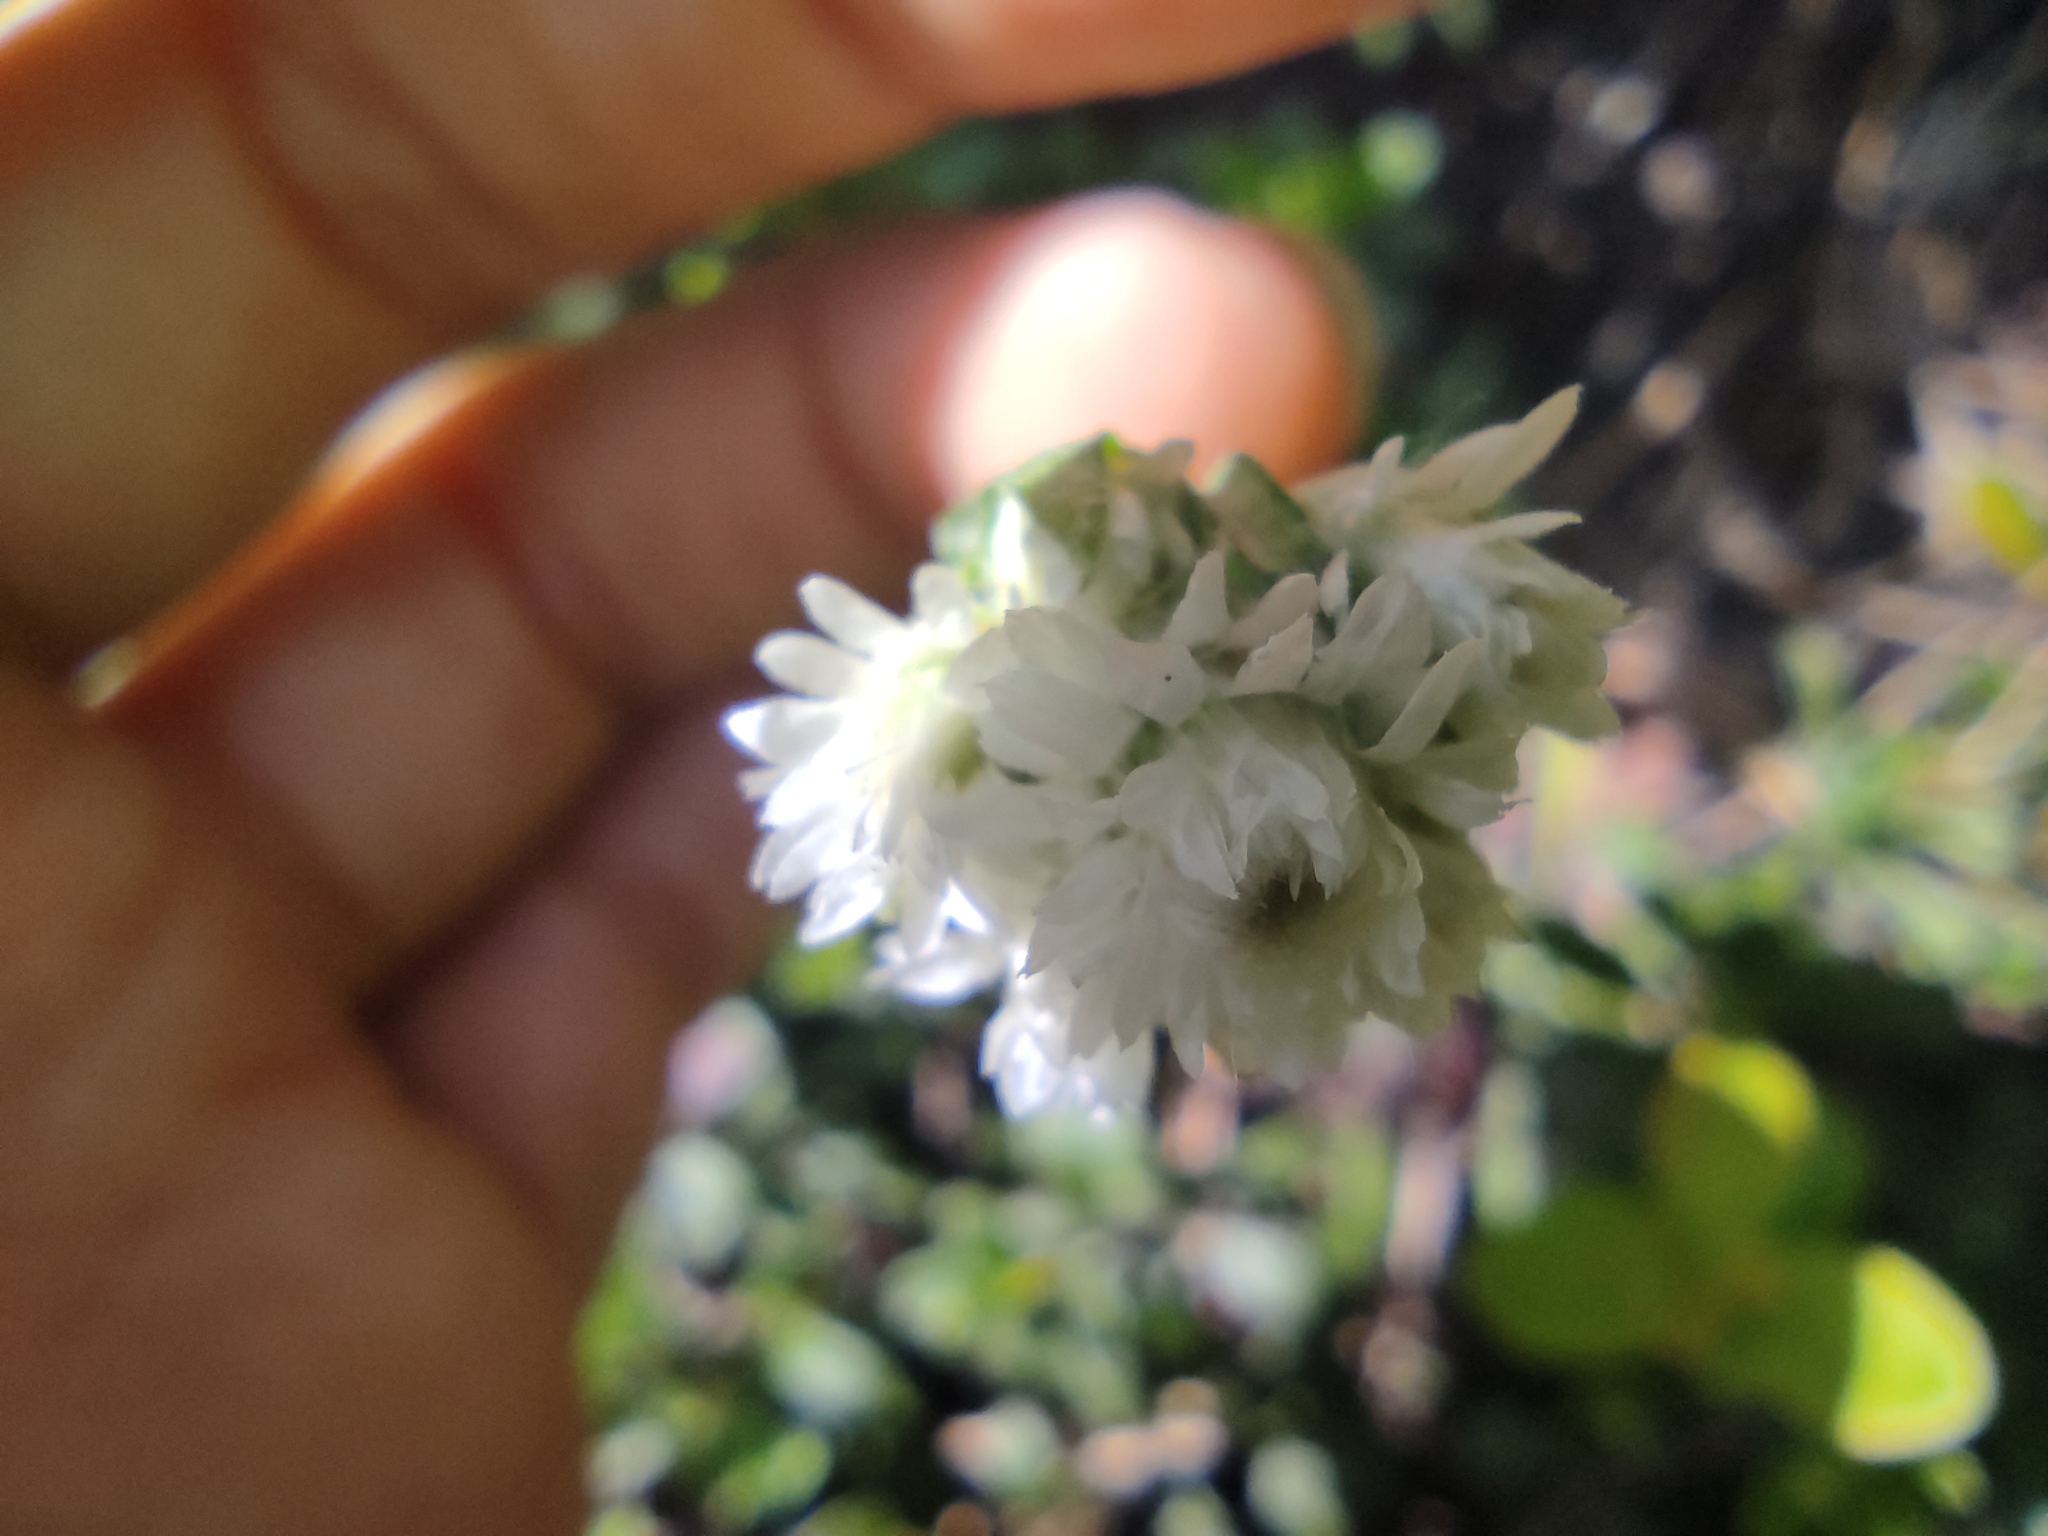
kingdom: Plantae
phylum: Tracheophyta
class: Magnoliopsida
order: Asterales
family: Asteraceae
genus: Antennaria
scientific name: Antennaria dioica
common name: Mountain everlasting
